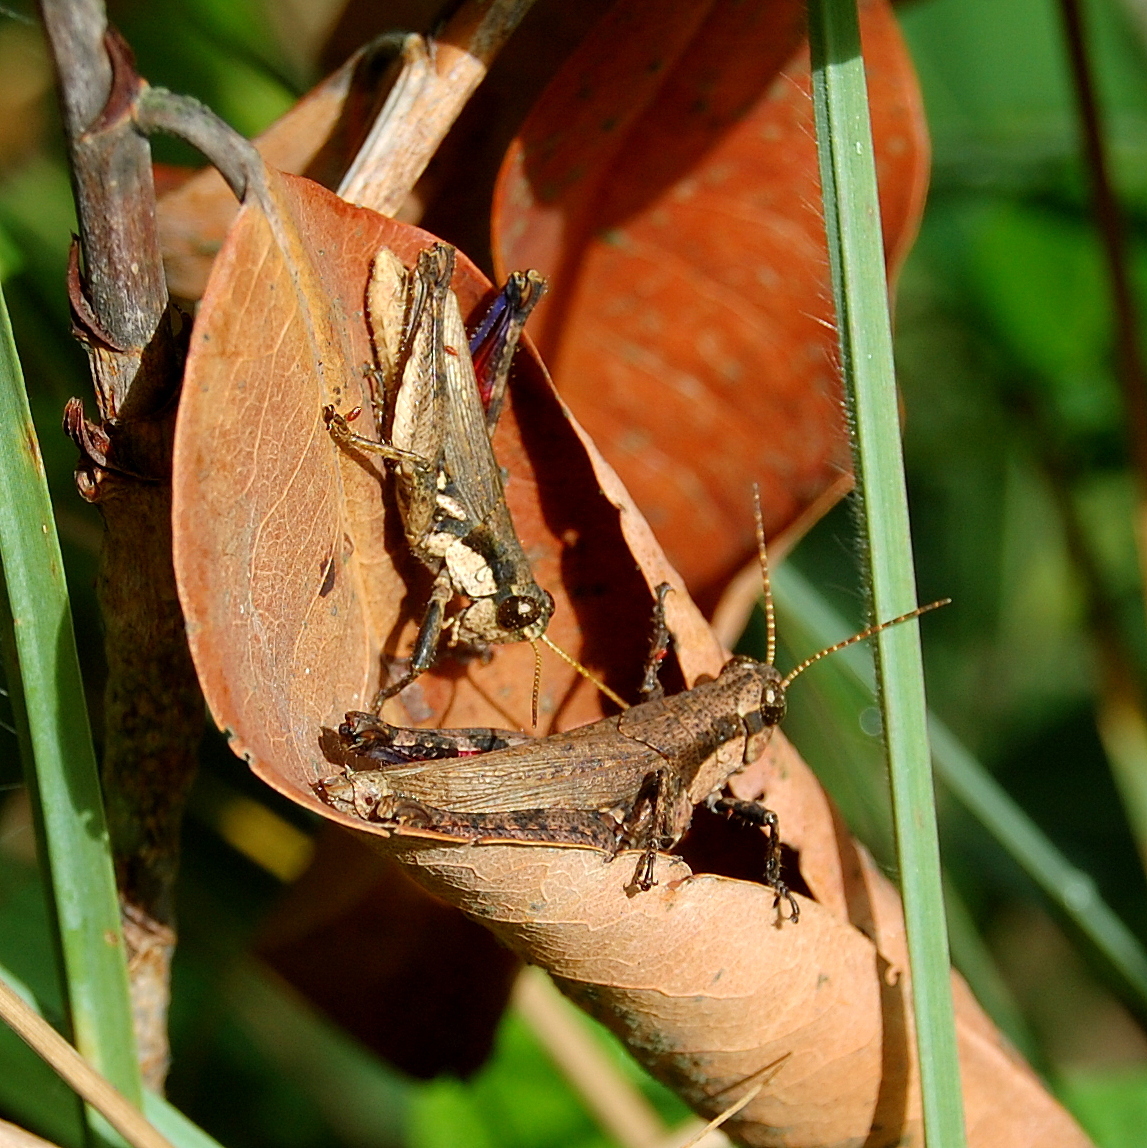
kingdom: Animalia
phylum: Arthropoda
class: Insecta
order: Orthoptera
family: Acrididae
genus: Ronderosia
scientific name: Ronderosia bergii
